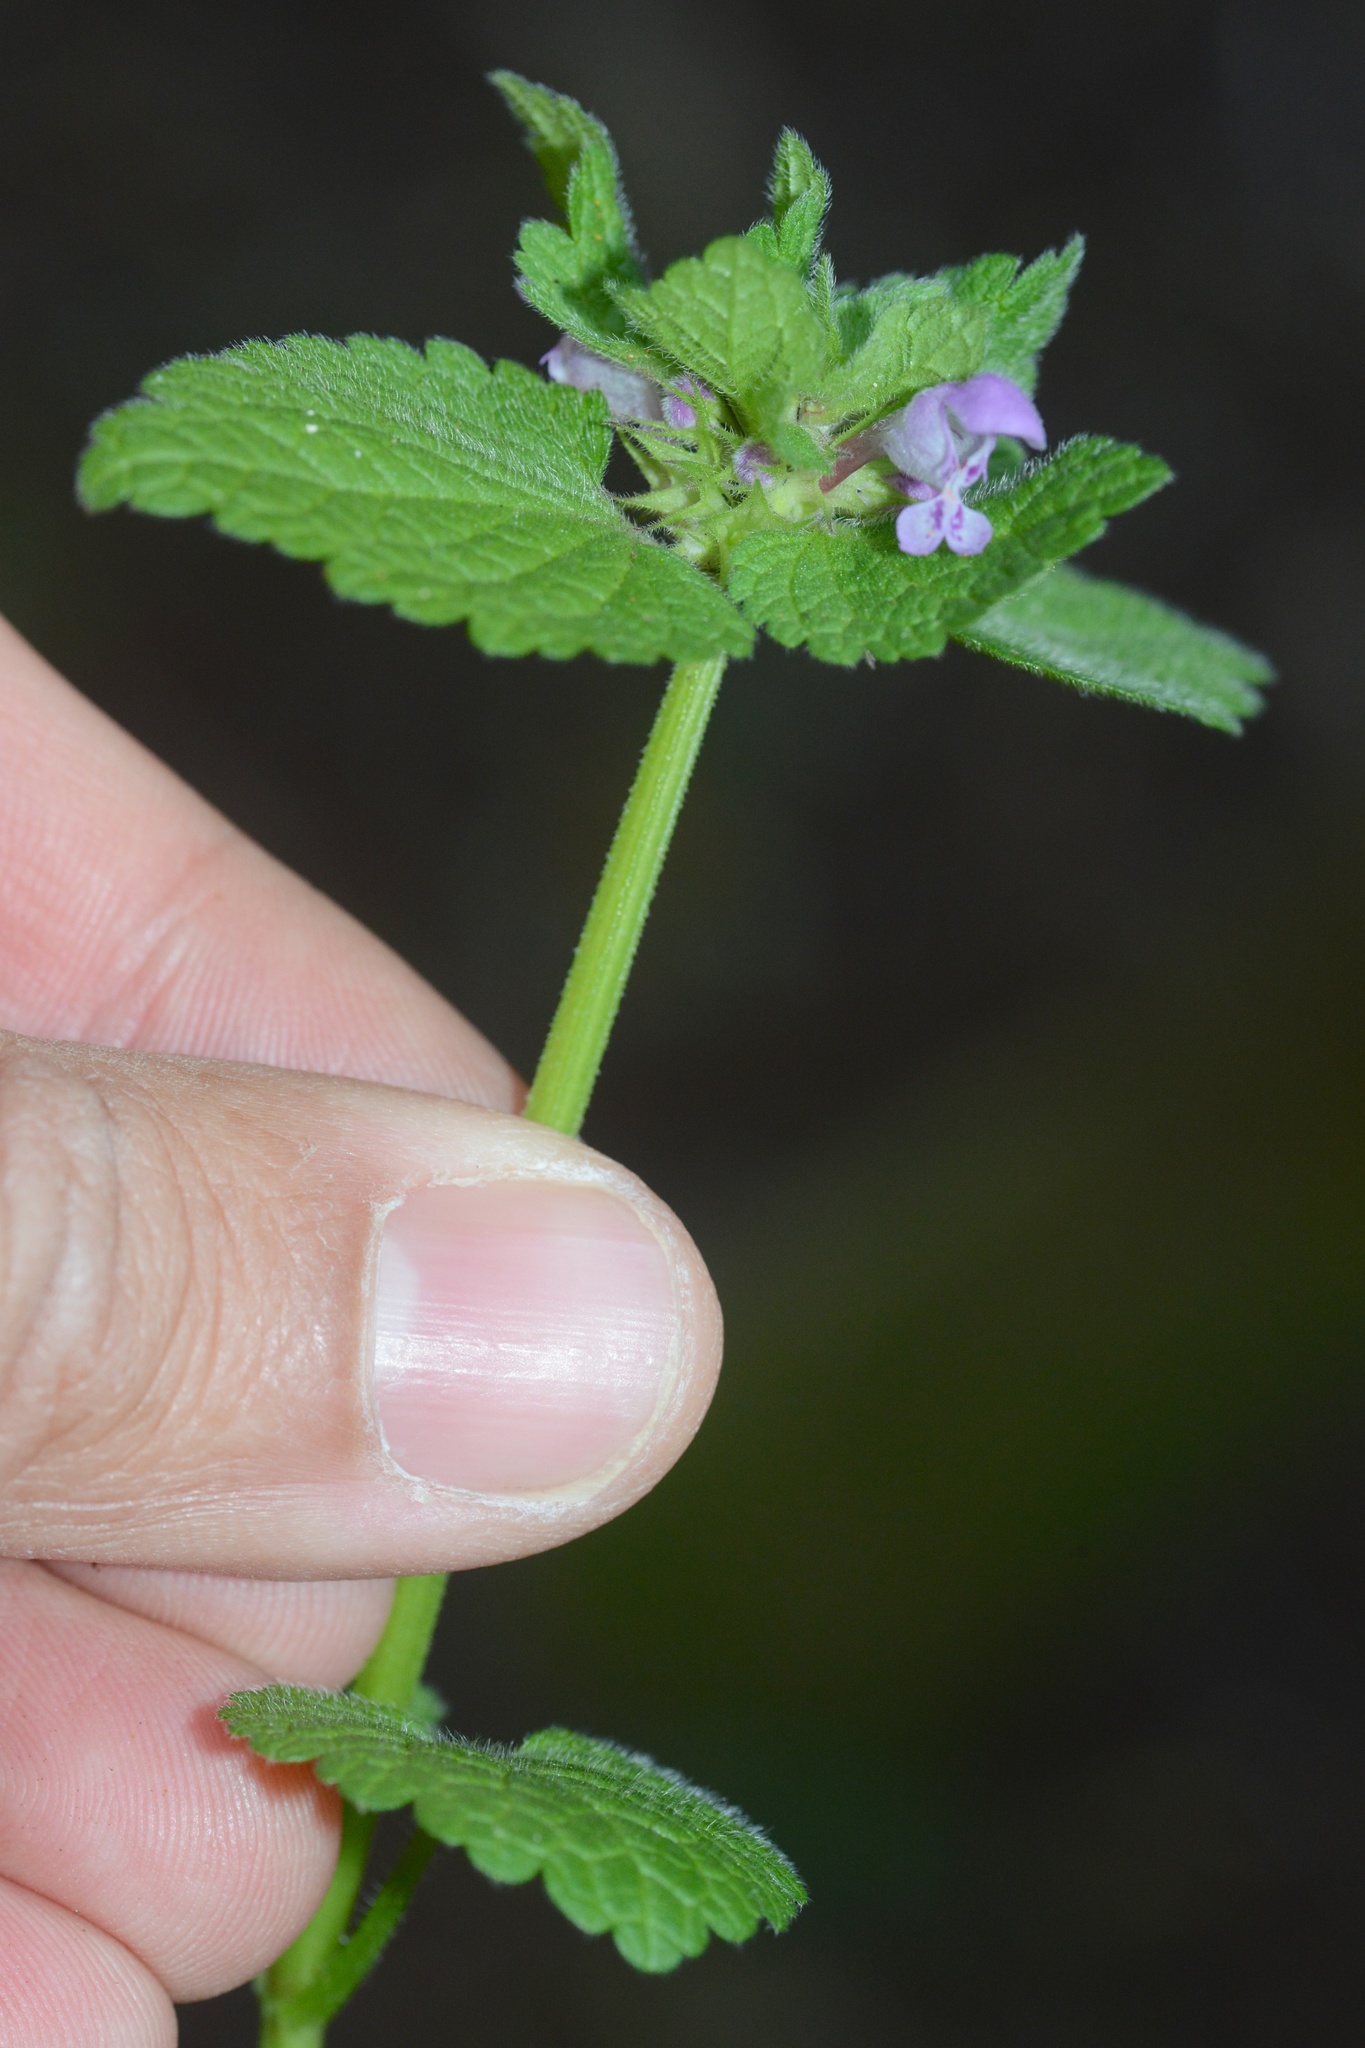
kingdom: Plantae
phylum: Tracheophyta
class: Magnoliopsida
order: Lamiales
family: Lamiaceae
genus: Lamium
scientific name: Lamium purpureum
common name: Red dead-nettle
